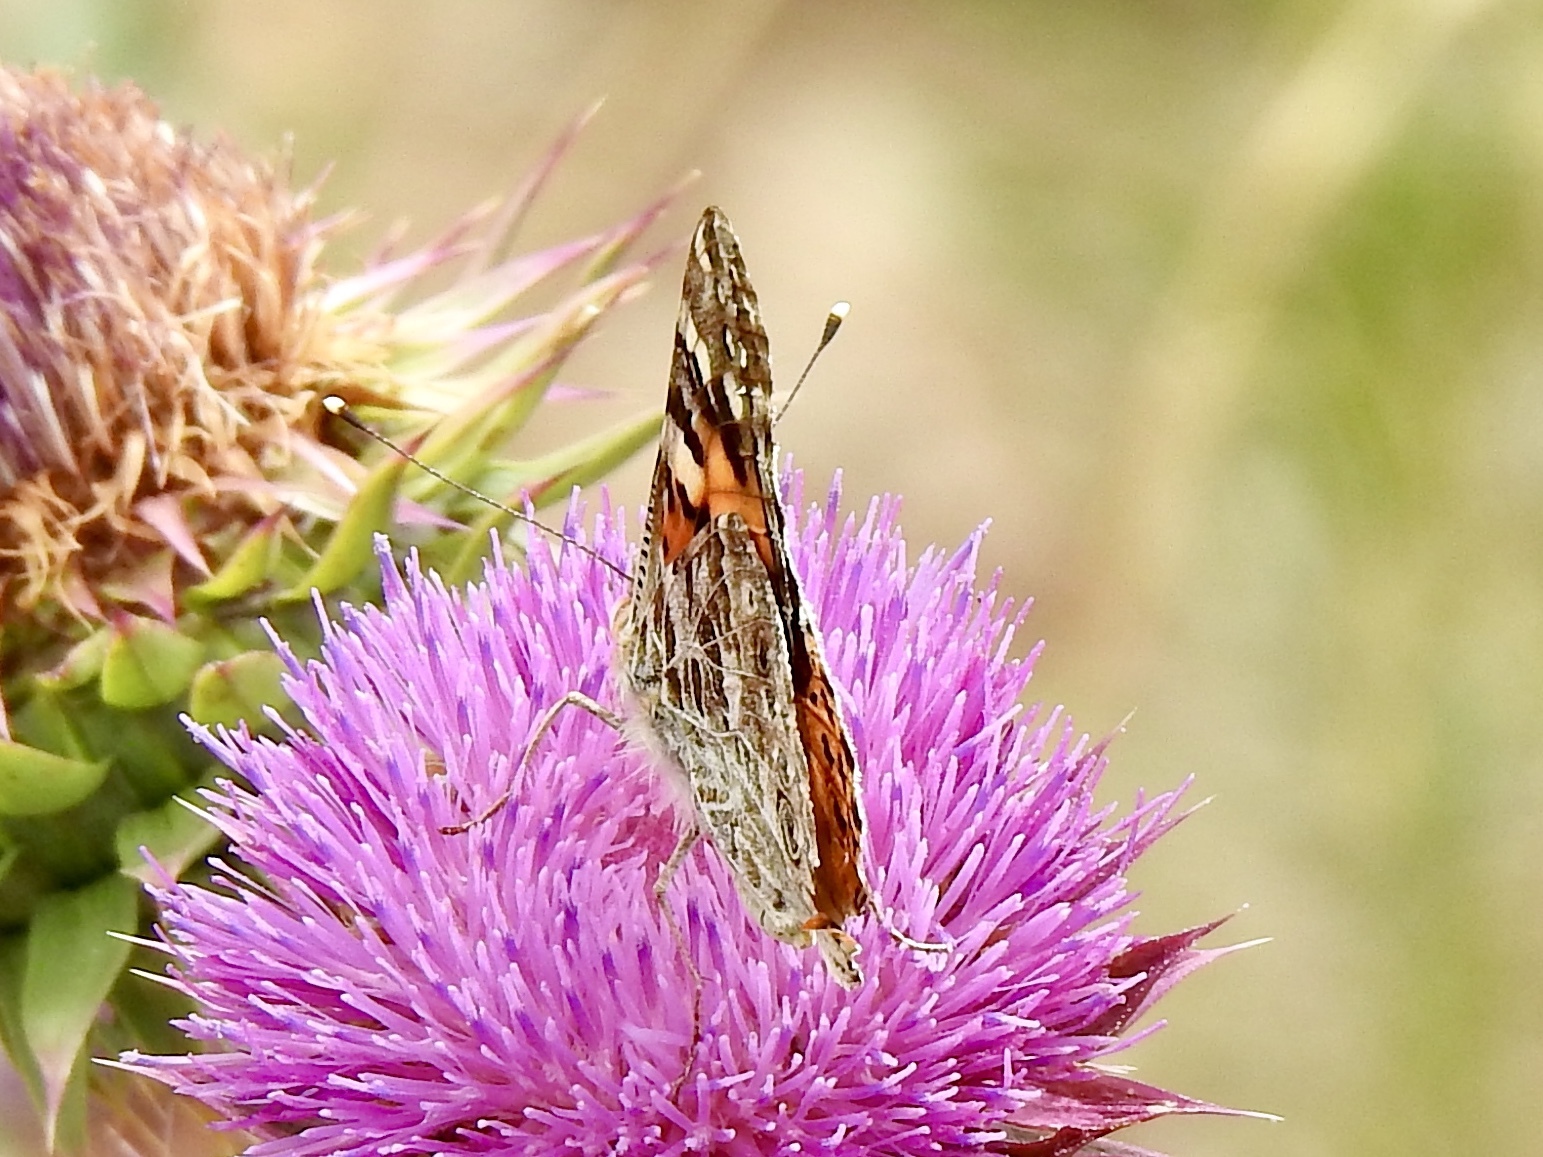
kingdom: Animalia
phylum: Arthropoda
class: Insecta
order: Lepidoptera
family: Nymphalidae
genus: Vanessa
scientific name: Vanessa cardui
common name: Painted lady
